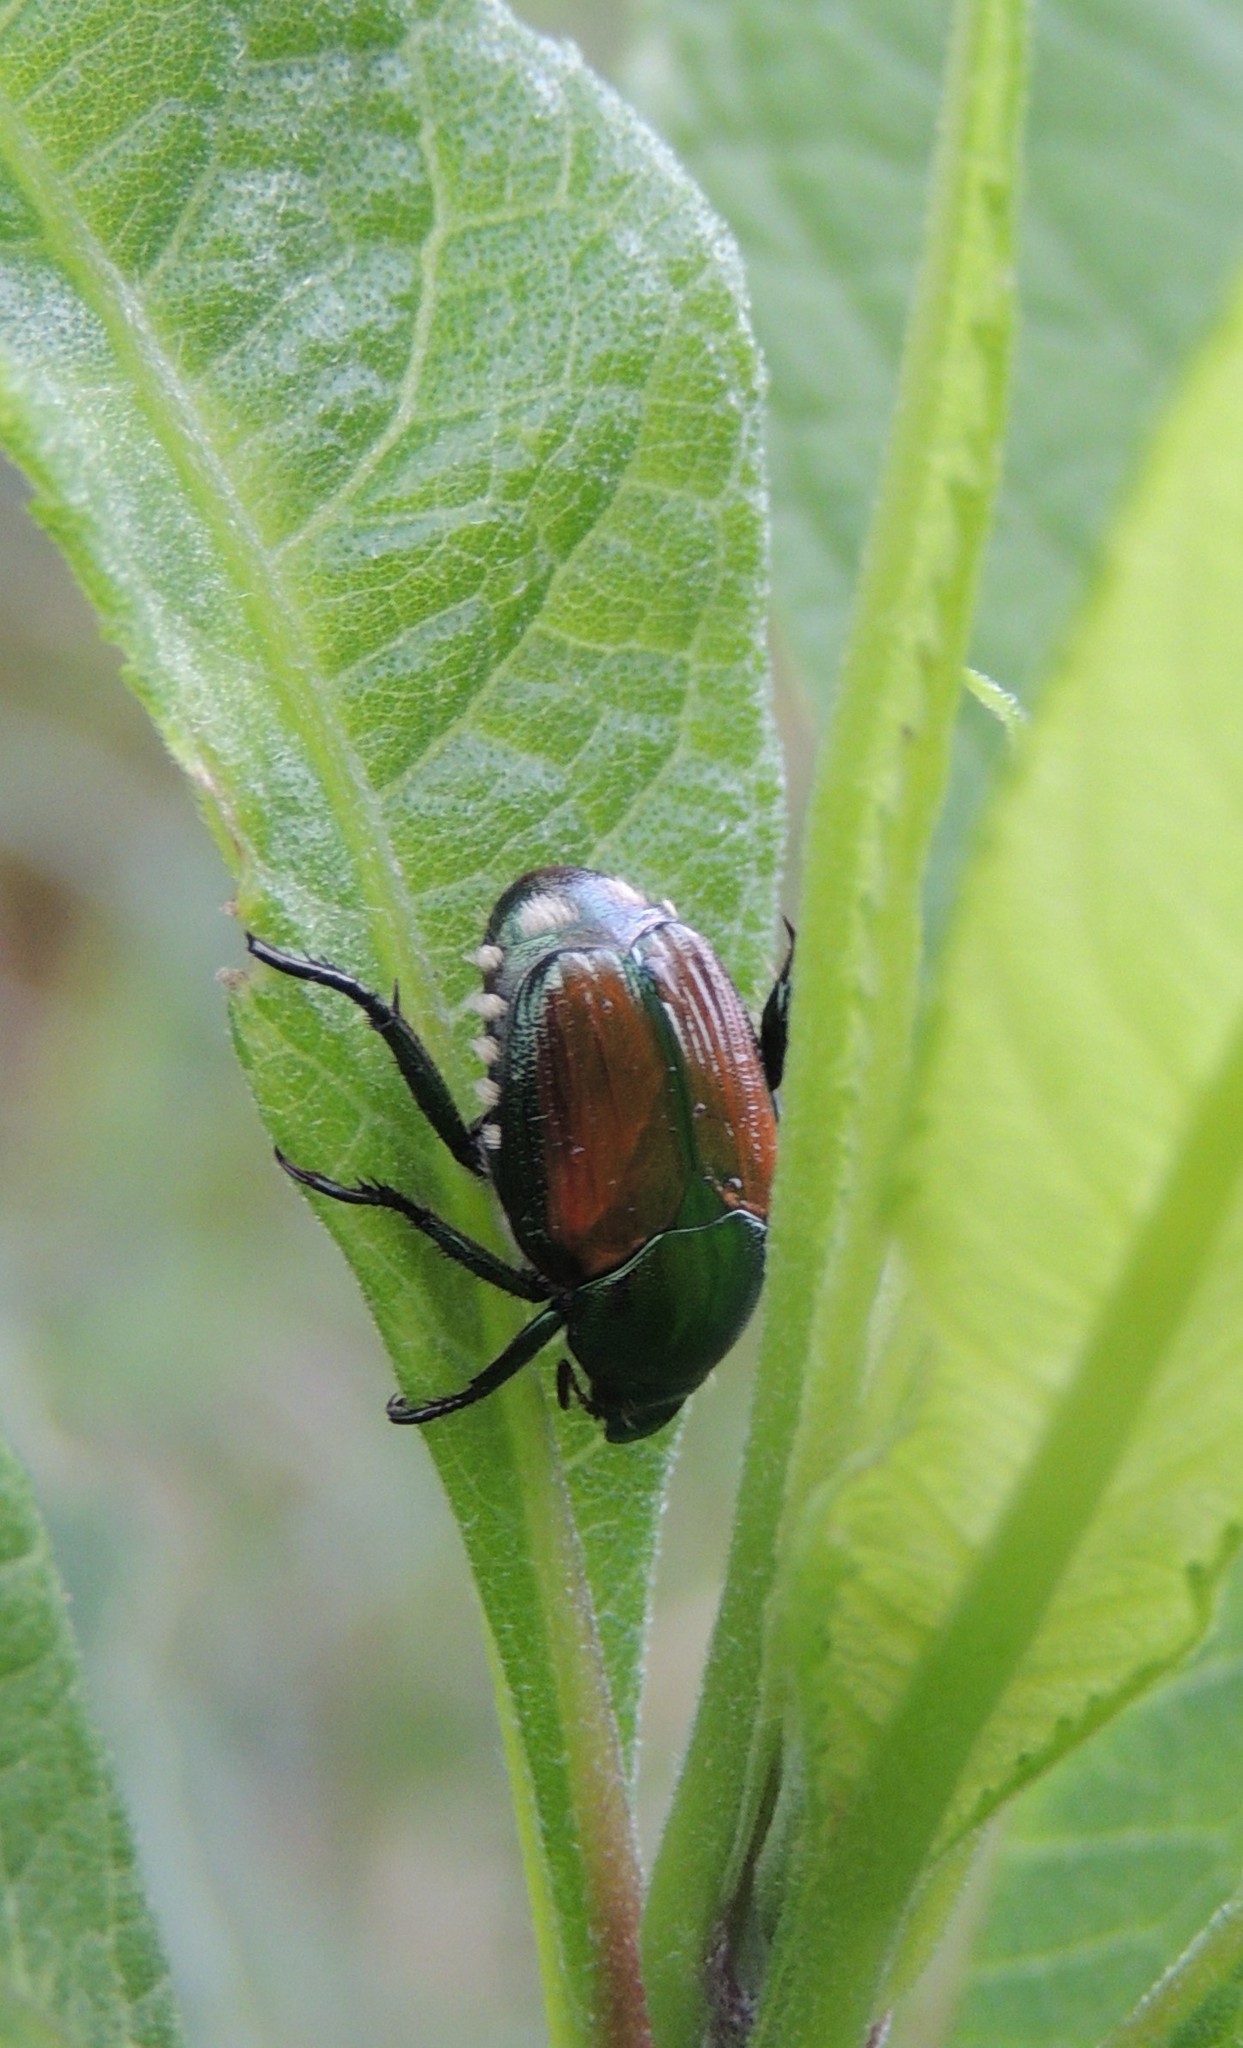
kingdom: Animalia
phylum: Arthropoda
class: Insecta
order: Coleoptera
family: Scarabaeidae
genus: Popillia
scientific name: Popillia japonica
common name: Japanese beetle
